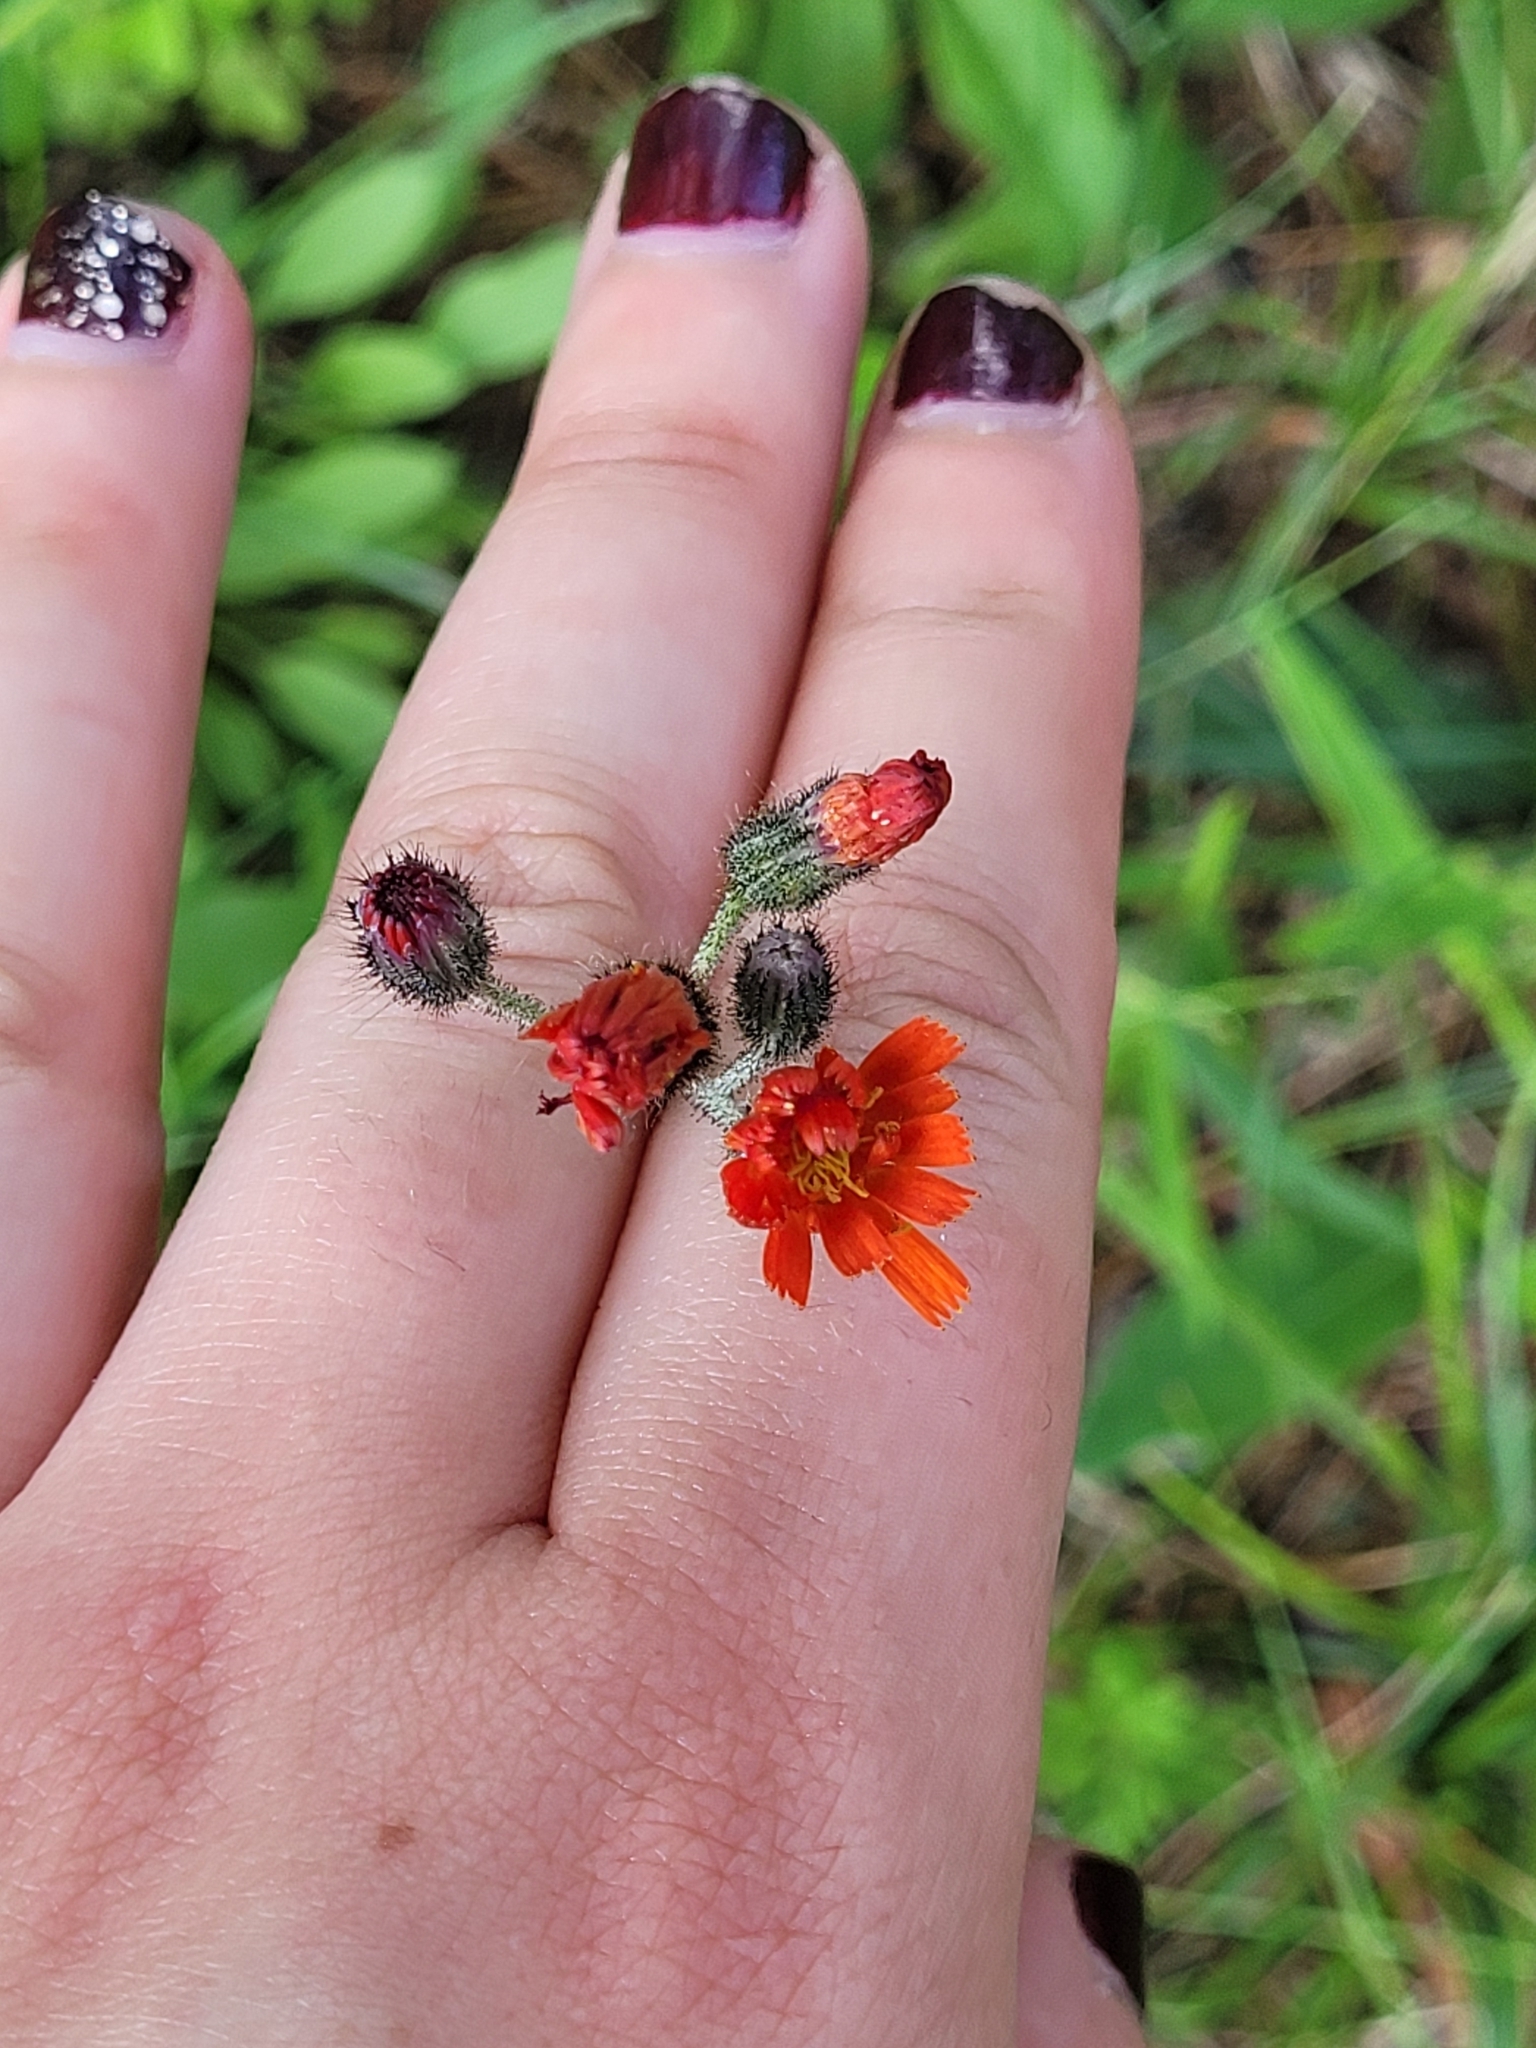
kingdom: Plantae
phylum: Tracheophyta
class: Magnoliopsida
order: Asterales
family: Asteraceae
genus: Pilosella
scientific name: Pilosella aurantiaca
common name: Fox-and-cubs
